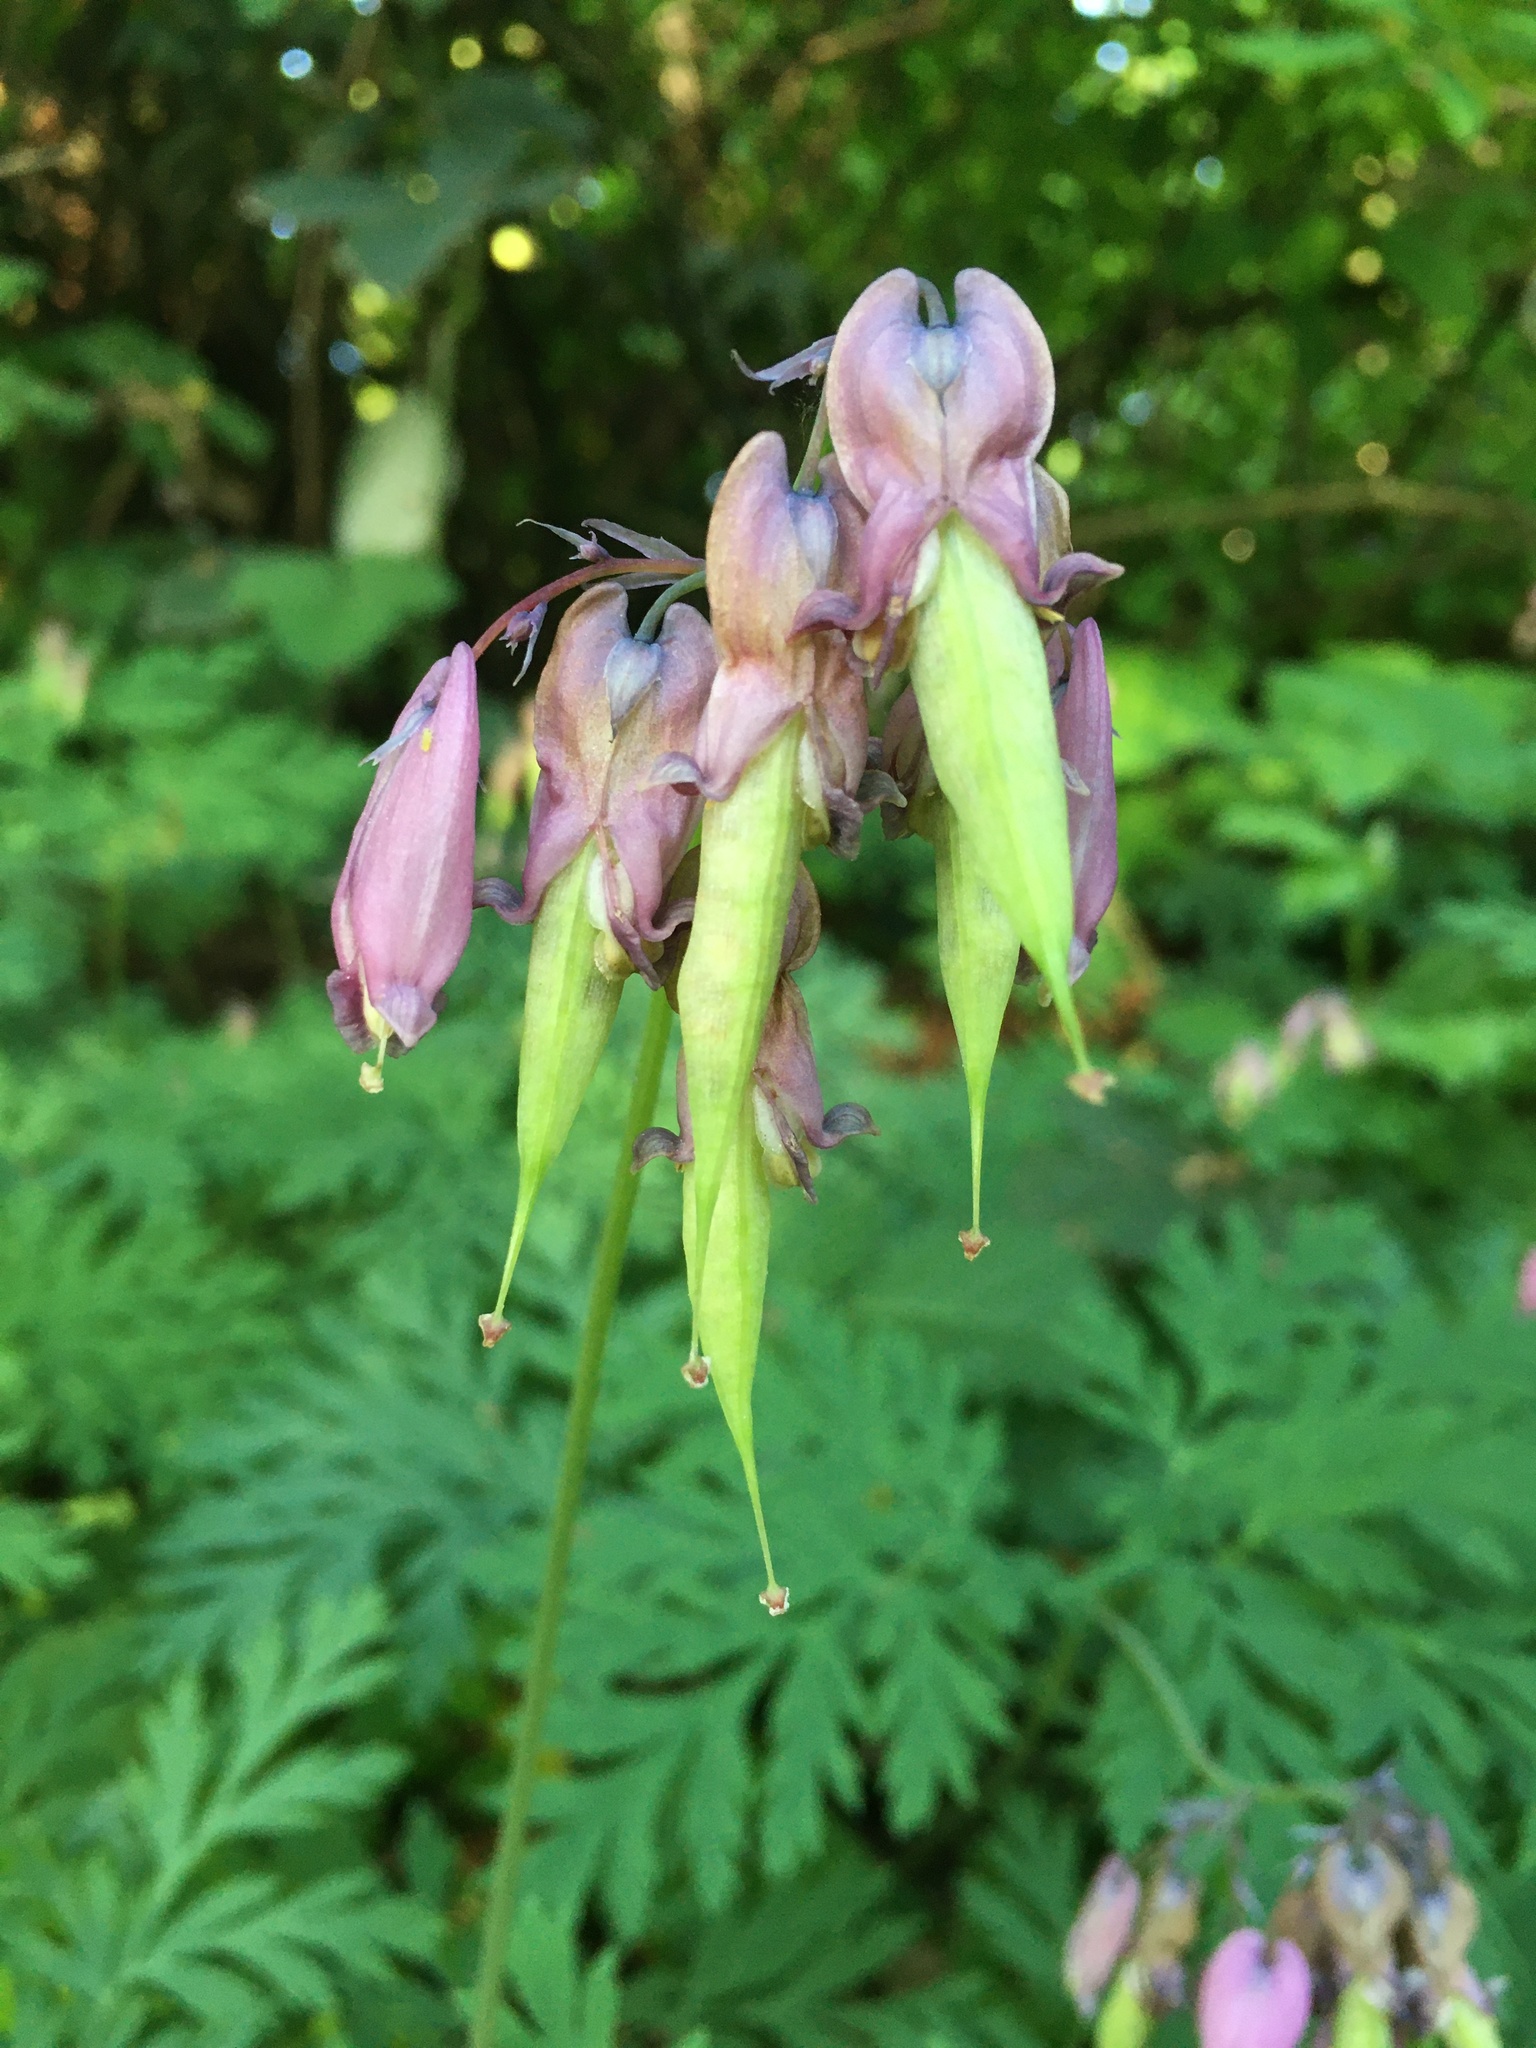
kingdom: Plantae
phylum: Tracheophyta
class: Magnoliopsida
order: Ranunculales
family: Papaveraceae
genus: Dicentra
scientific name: Dicentra formosa
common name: Bleeding-heart
